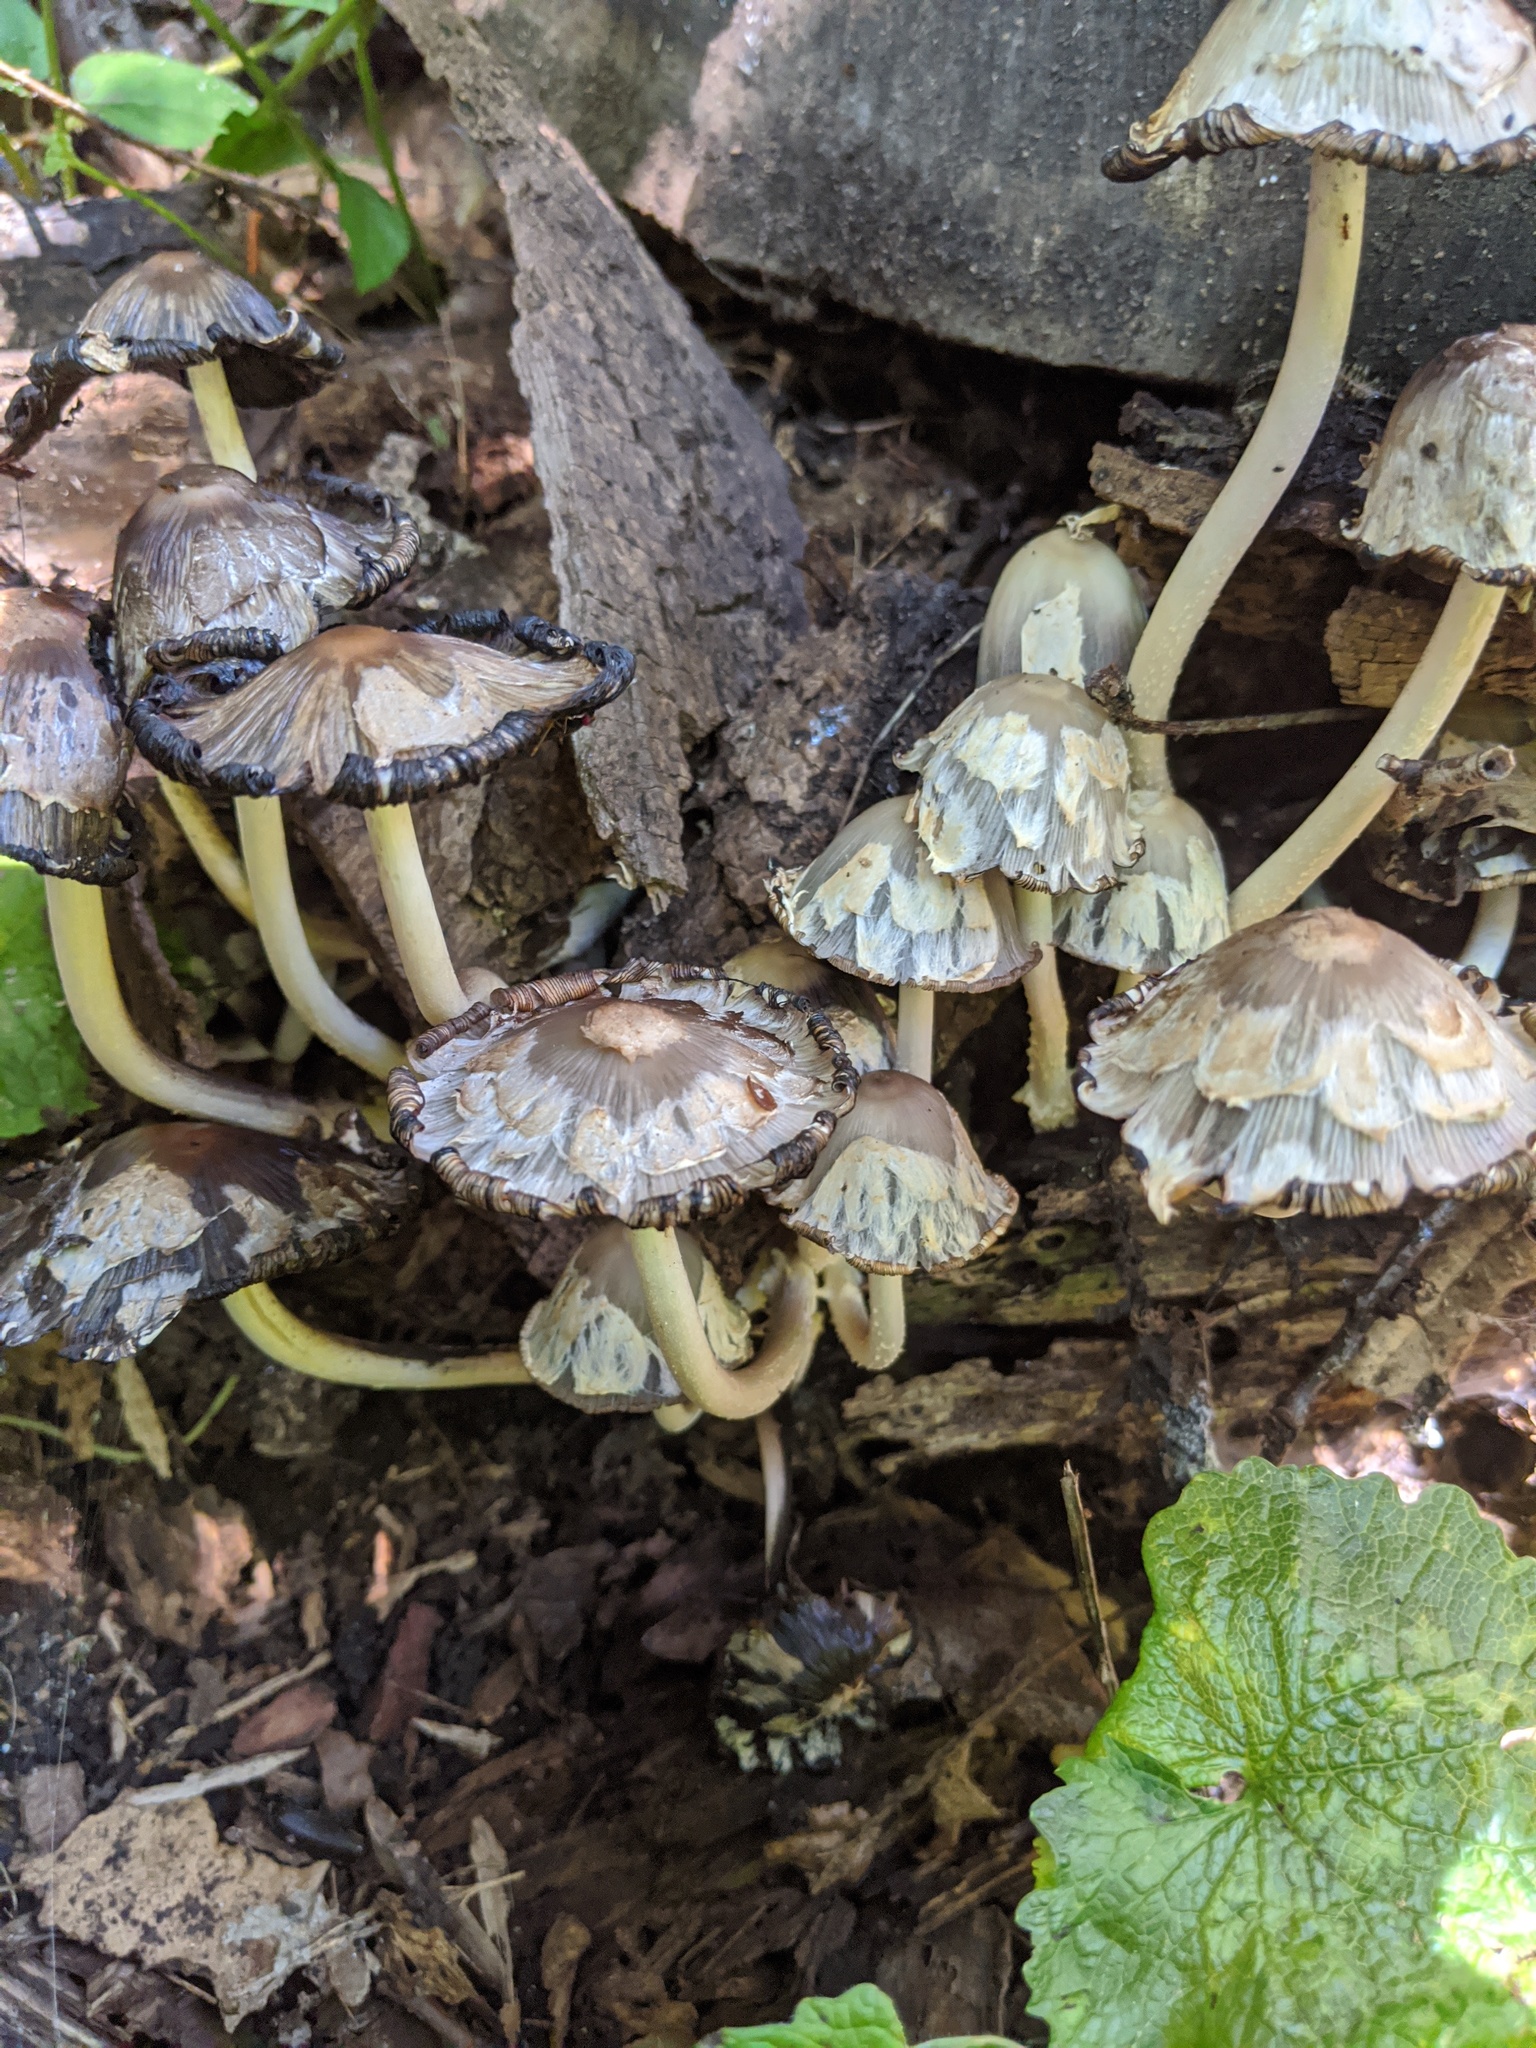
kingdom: Fungi
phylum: Basidiomycota
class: Agaricomycetes
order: Agaricales
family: Psathyrellaceae
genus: Coprinopsis
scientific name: Coprinopsis variegata
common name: Scaly ink cap
